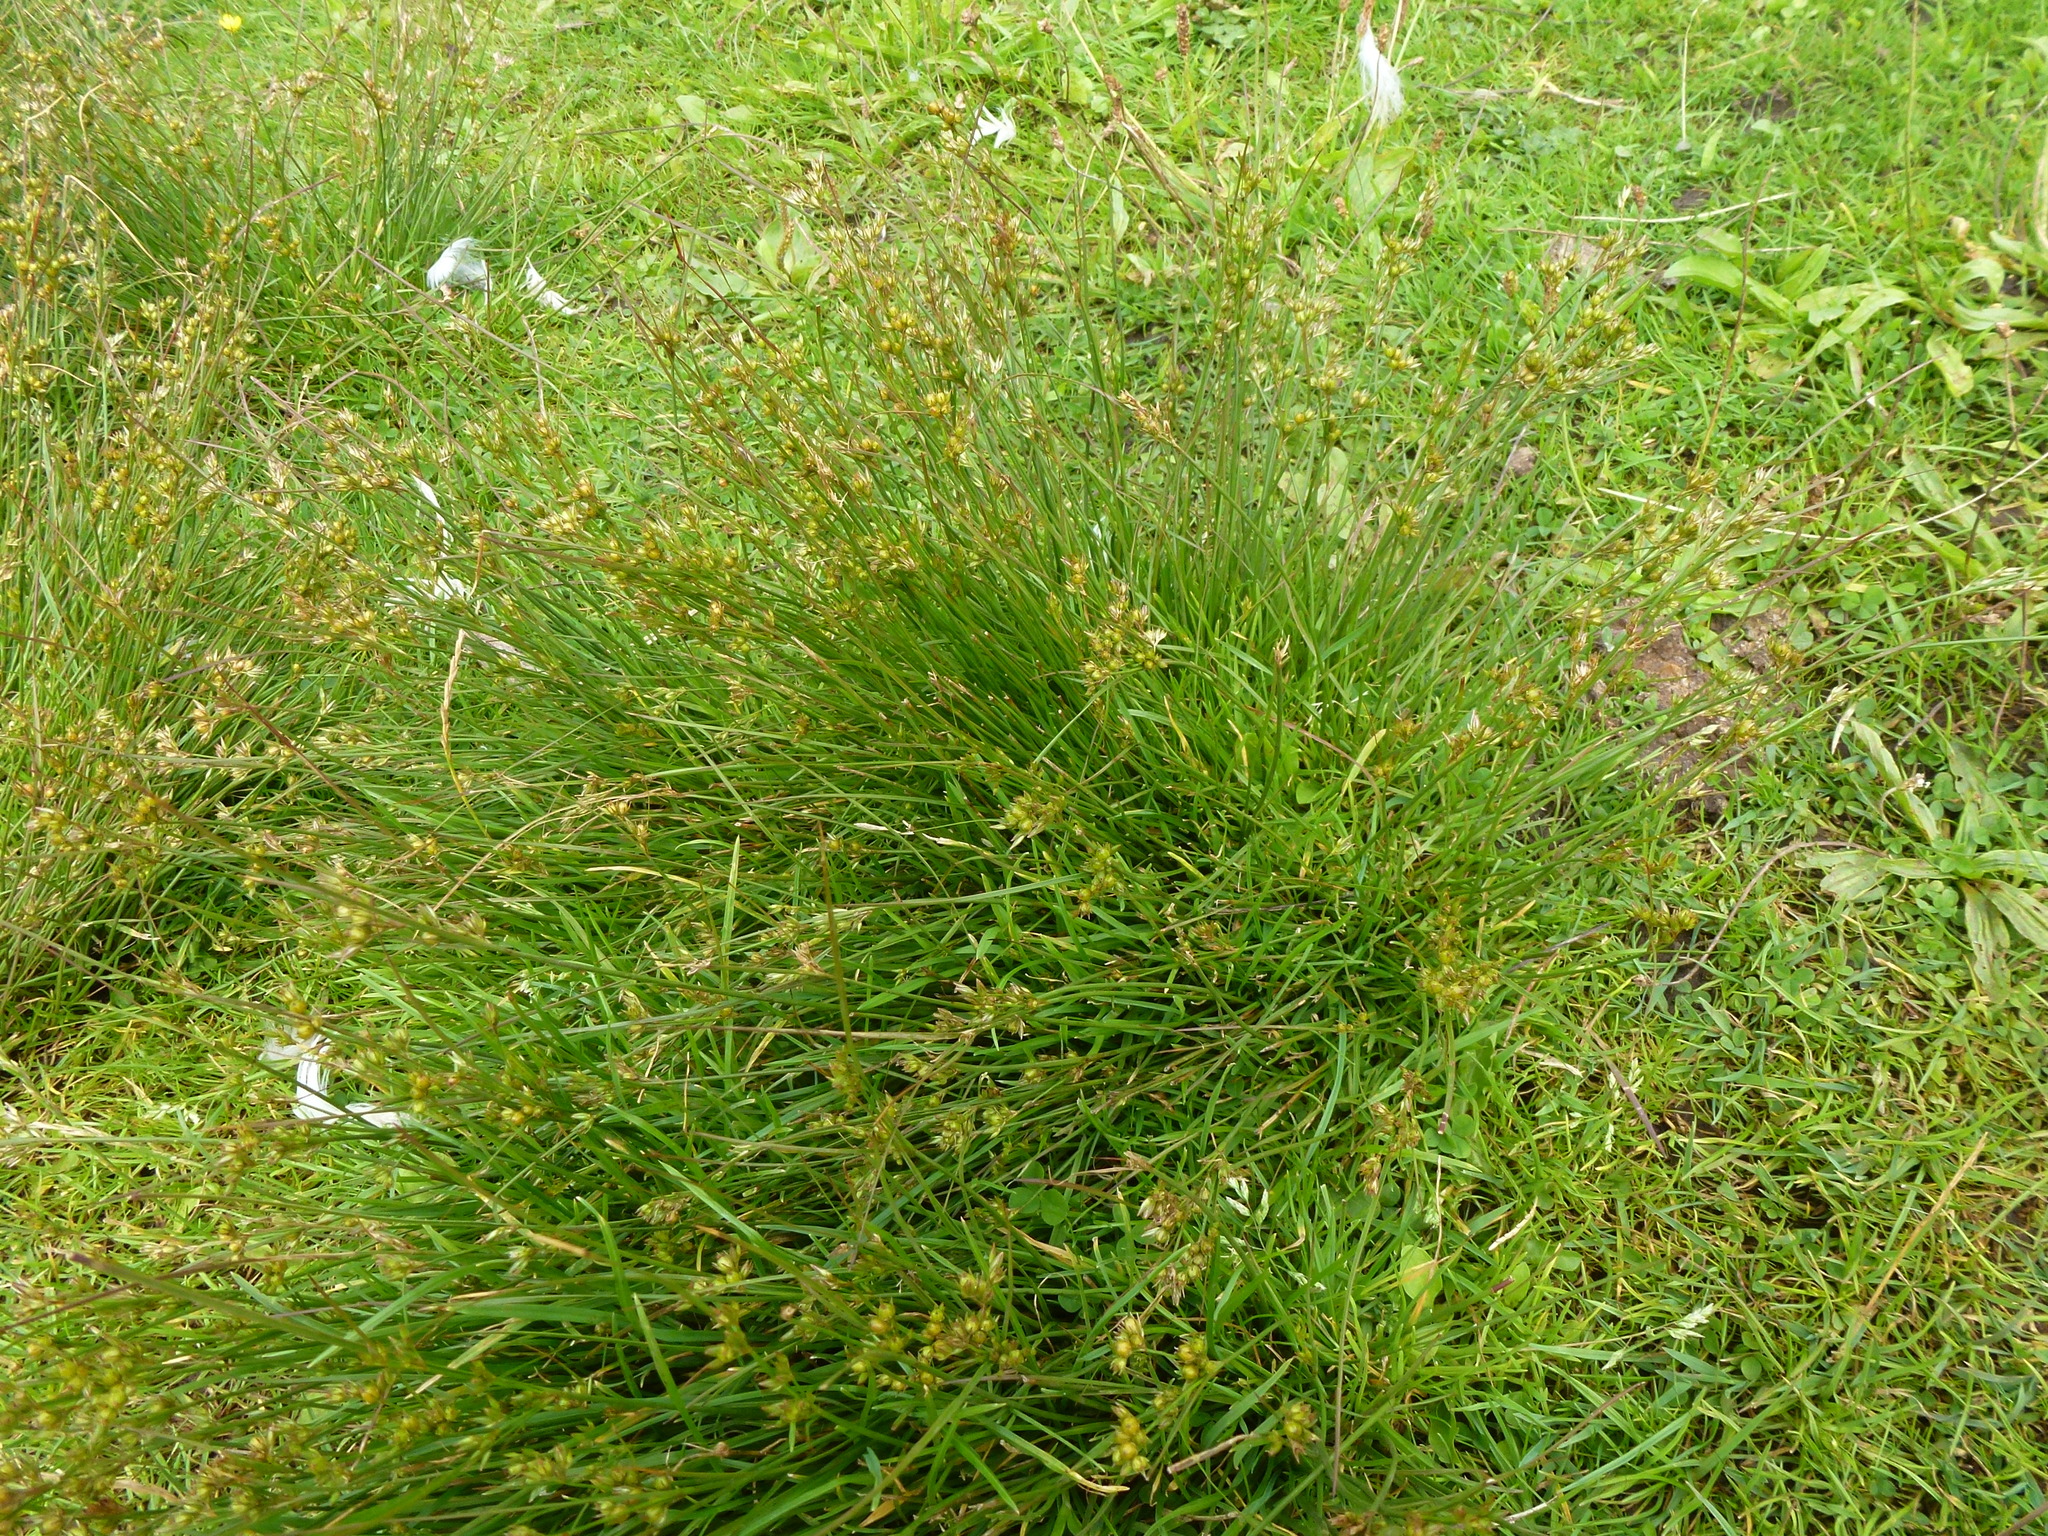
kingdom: Plantae
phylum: Tracheophyta
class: Liliopsida
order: Poales
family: Juncaceae
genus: Juncus
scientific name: Juncus tenuis
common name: Slender rush
